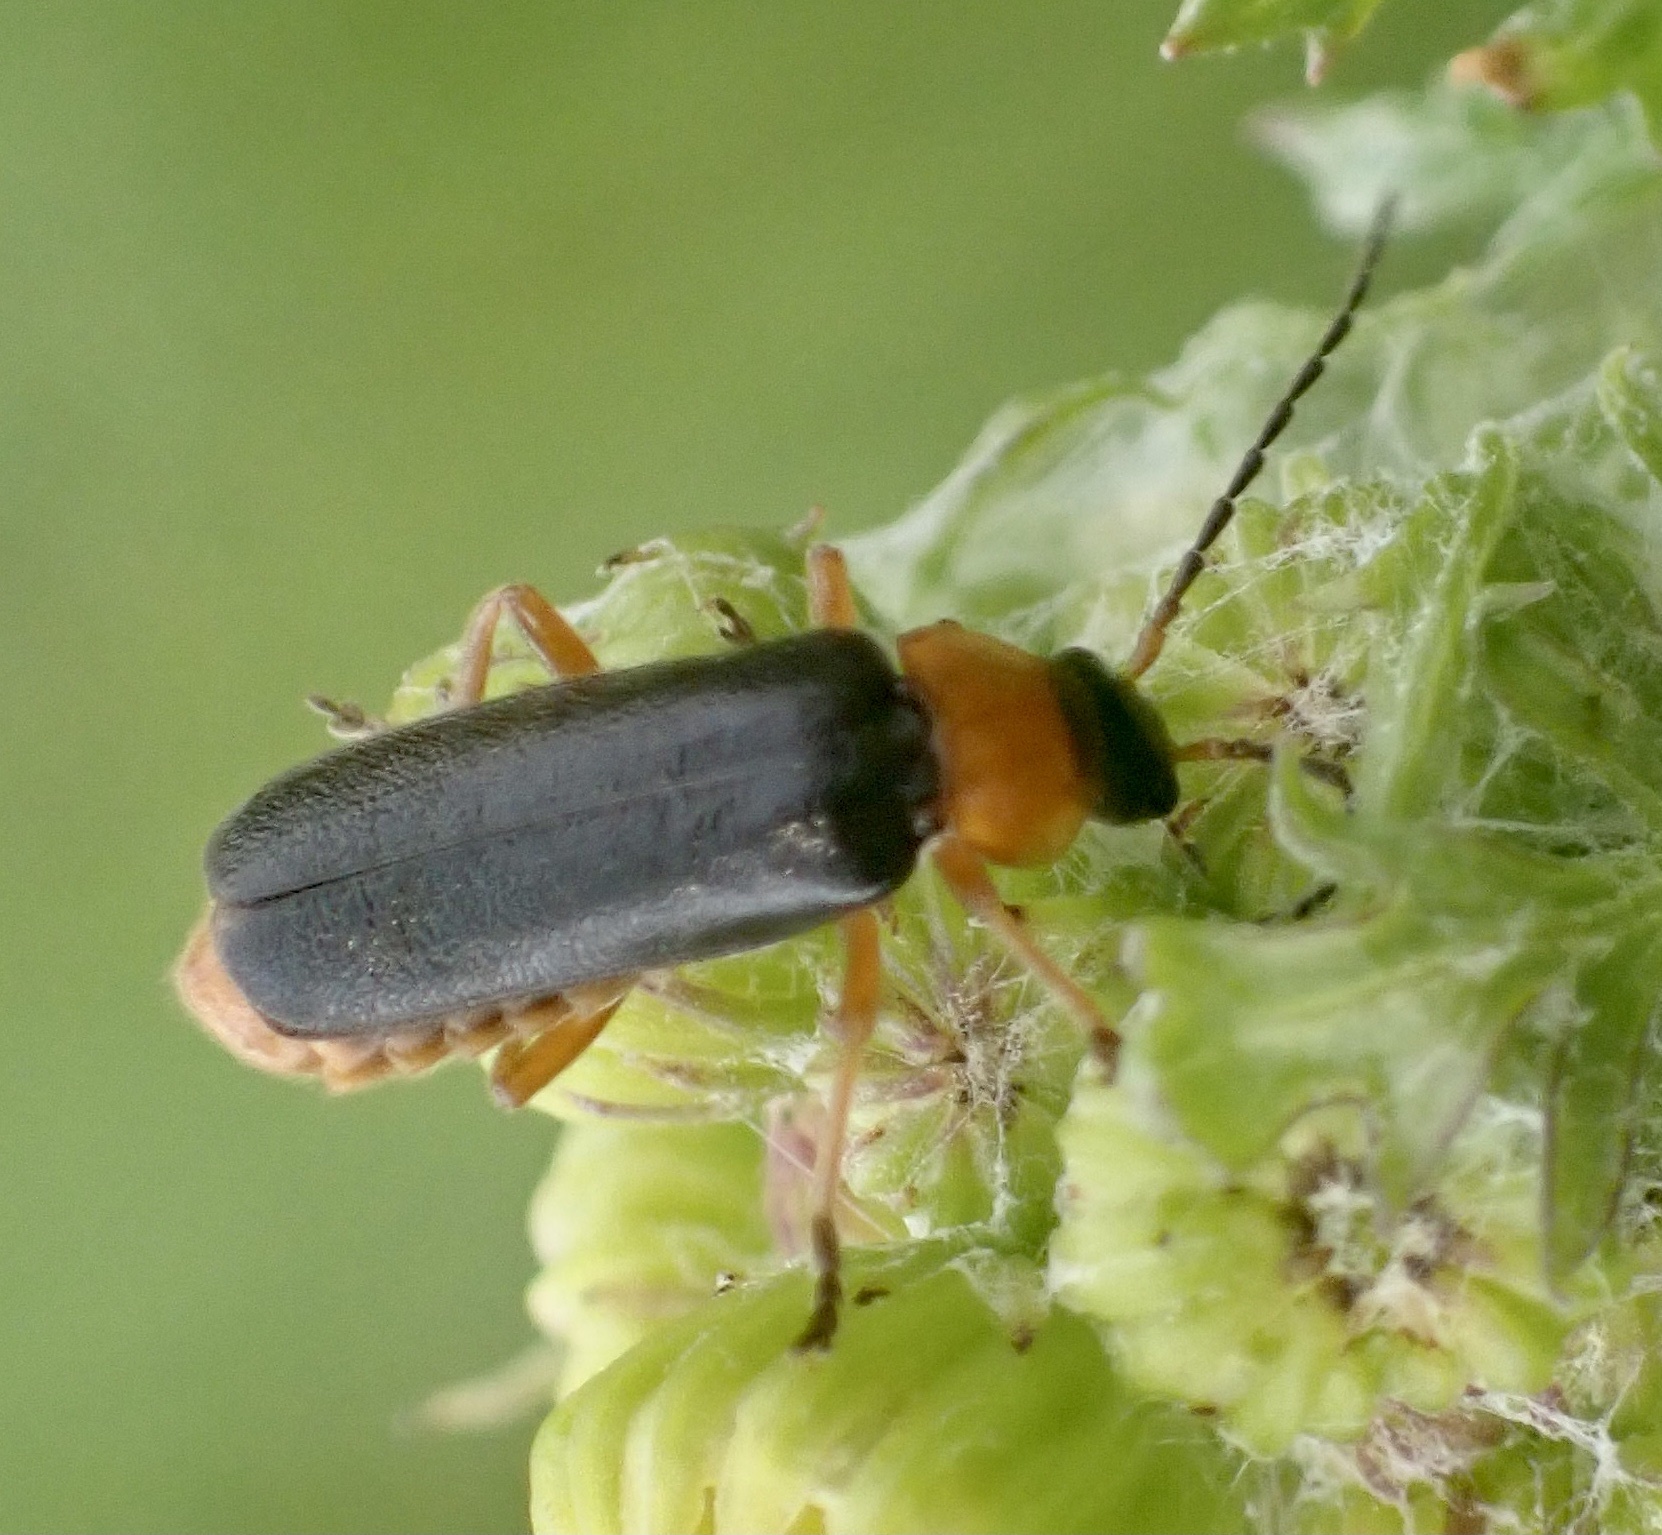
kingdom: Animalia
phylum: Arthropoda
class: Insecta
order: Coleoptera
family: Cantharidae
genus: Cantharis
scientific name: Cantharis flavilabris
